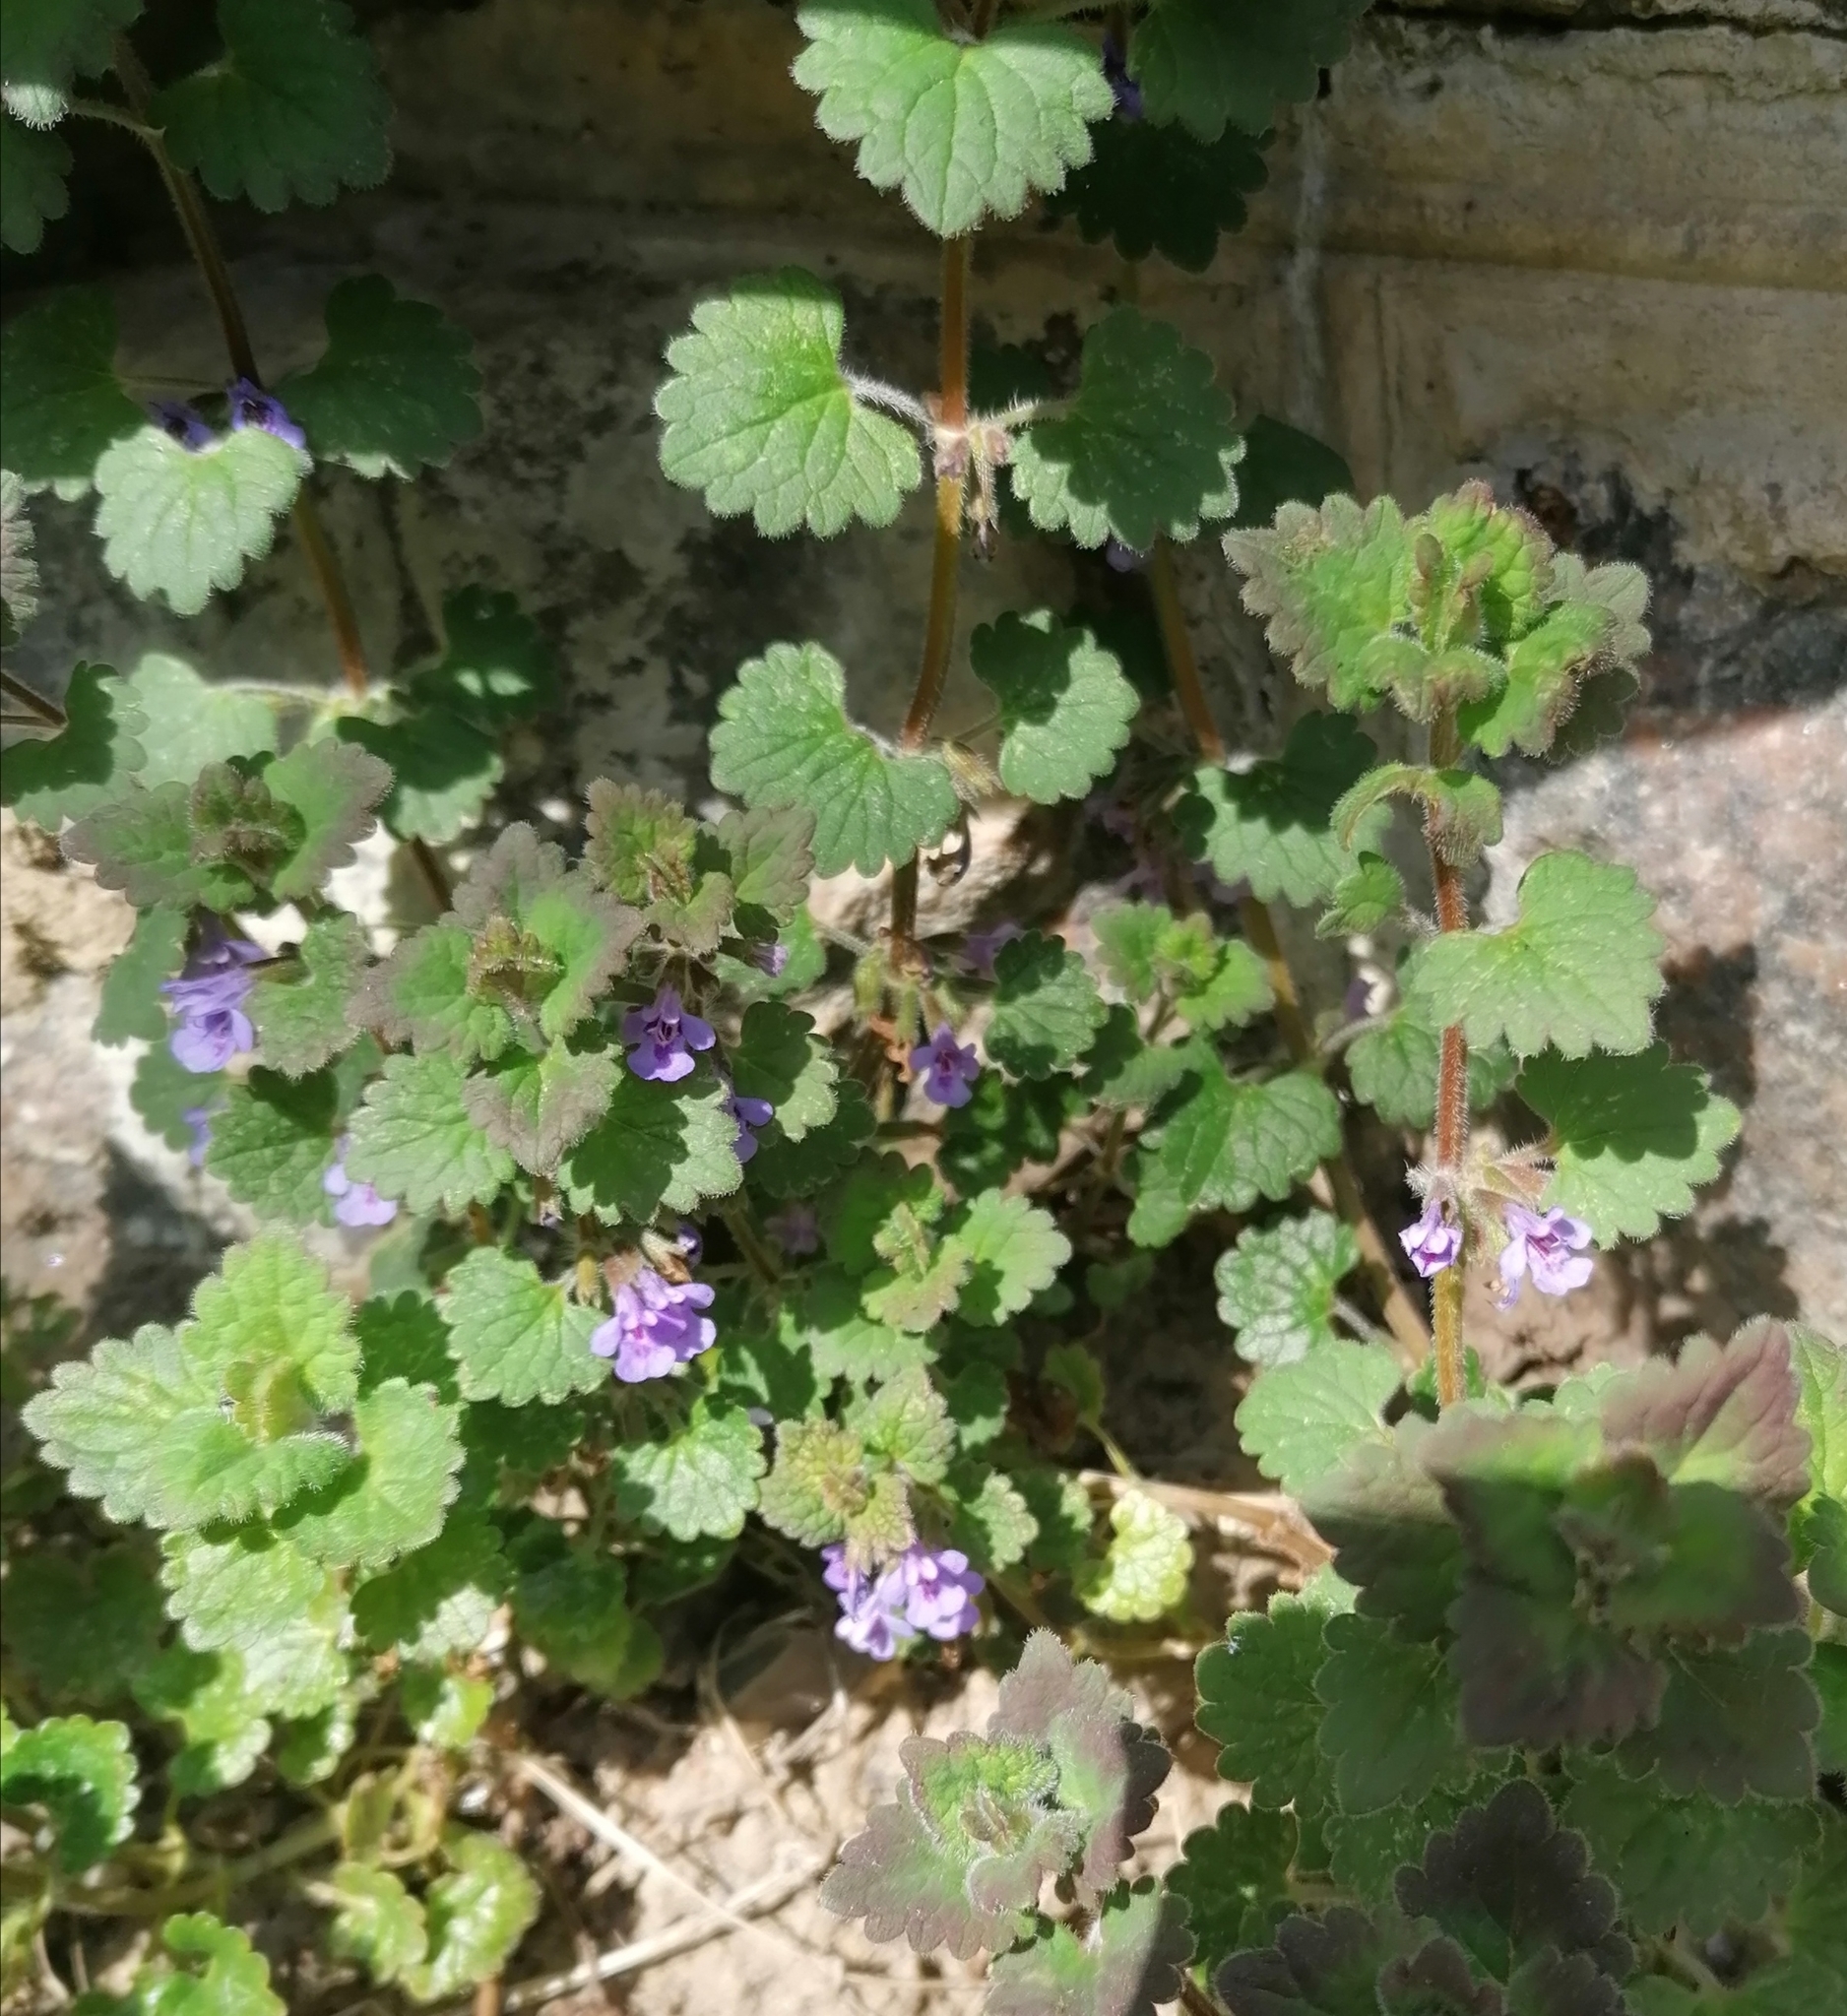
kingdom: Plantae
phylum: Tracheophyta
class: Magnoliopsida
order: Lamiales
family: Lamiaceae
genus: Glechoma
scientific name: Glechoma hederacea
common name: Ground ivy
